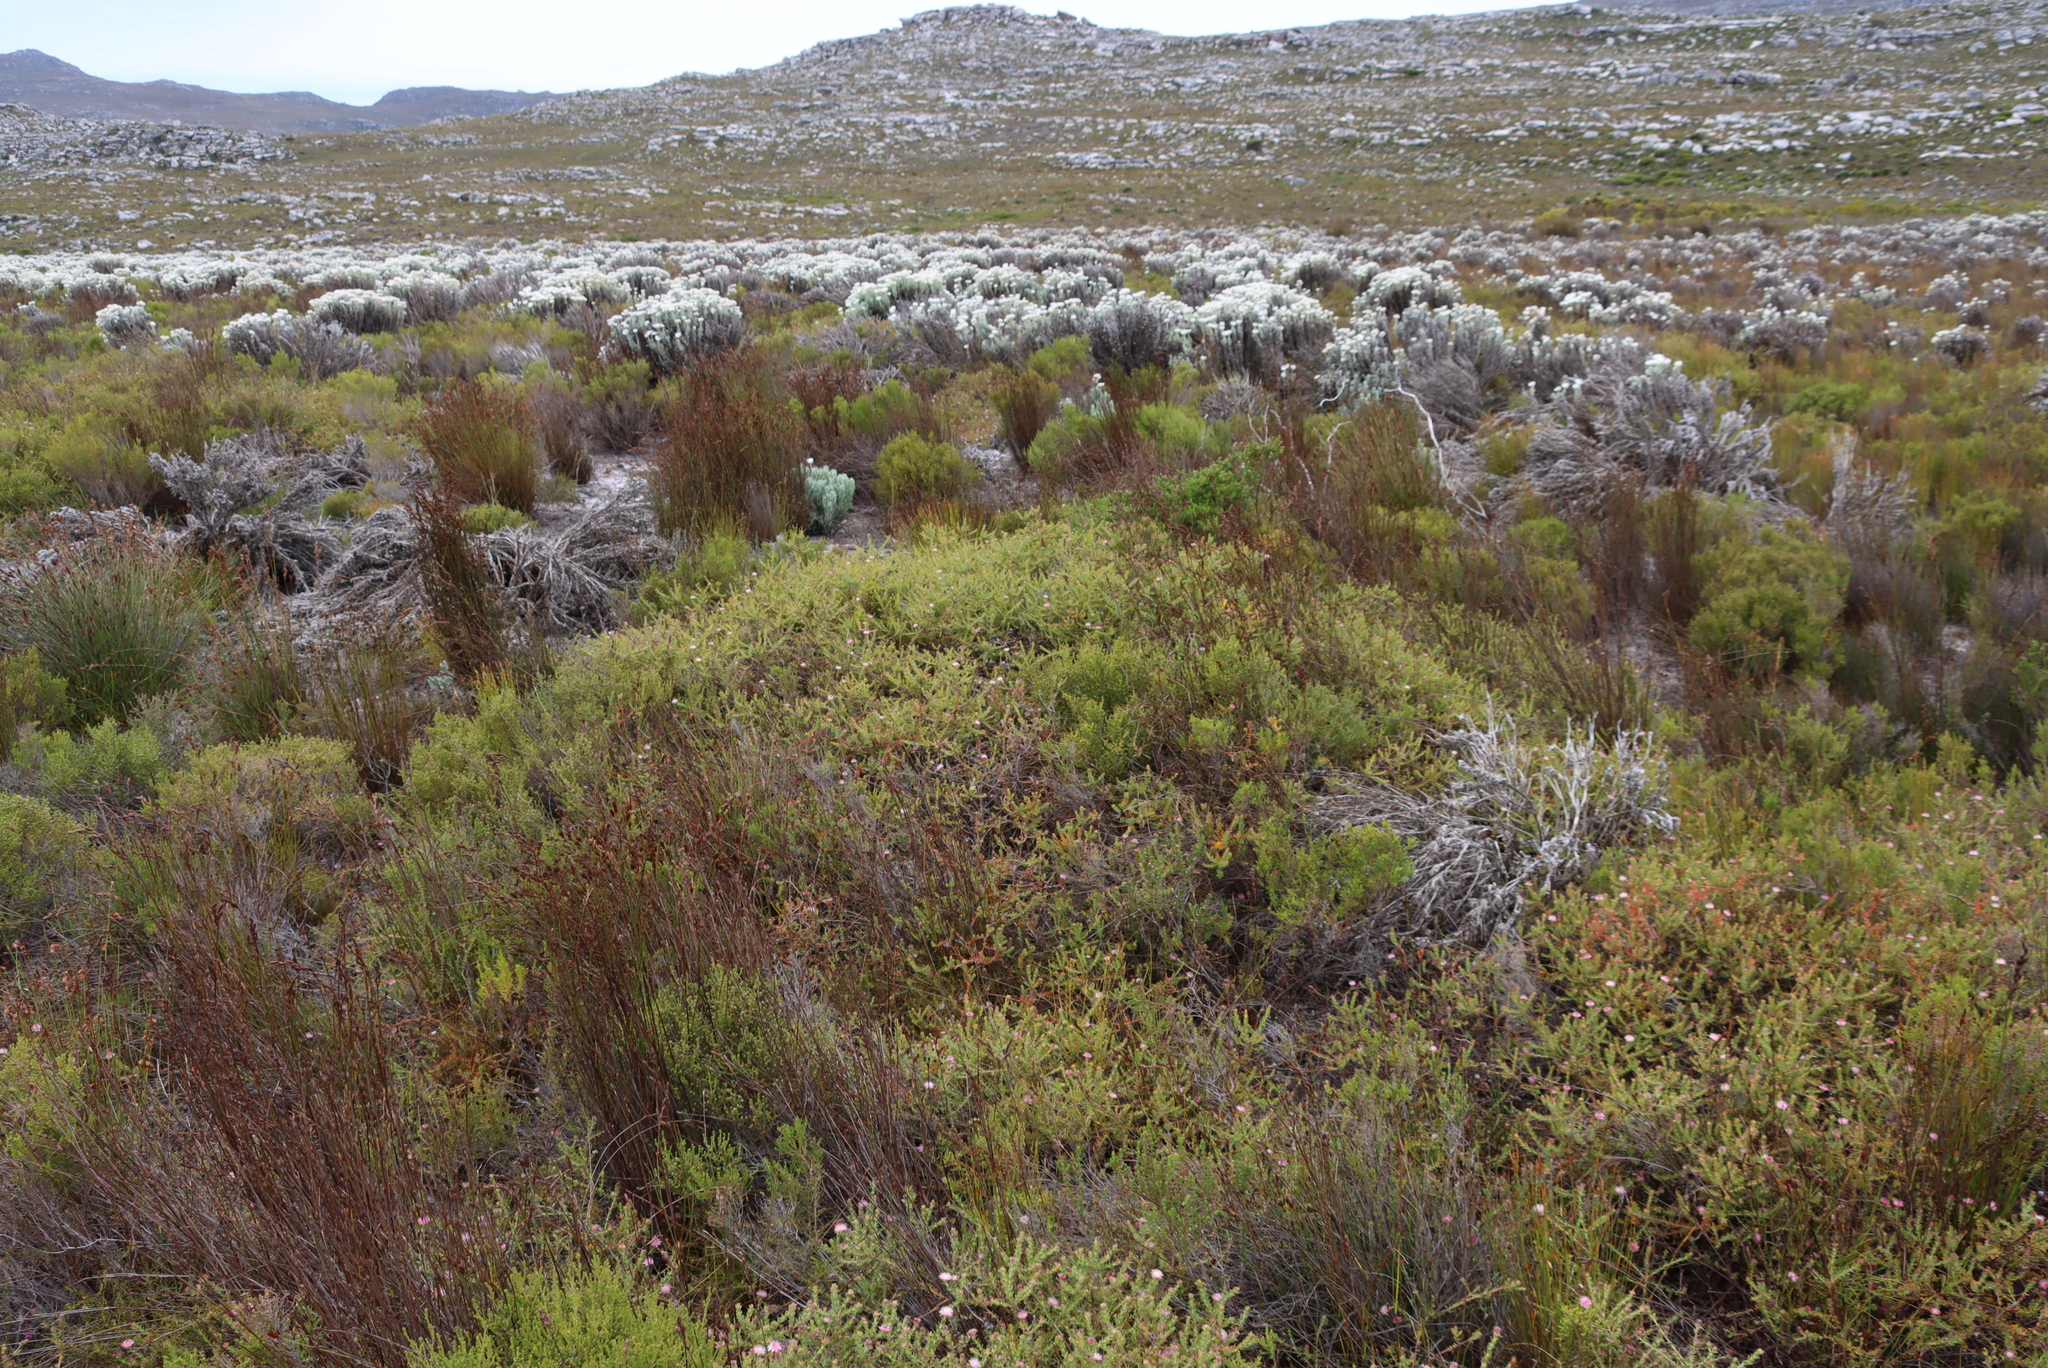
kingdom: Plantae
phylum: Tracheophyta
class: Magnoliopsida
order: Proteales
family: Proteaceae
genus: Diastella
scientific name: Diastella divaricata
